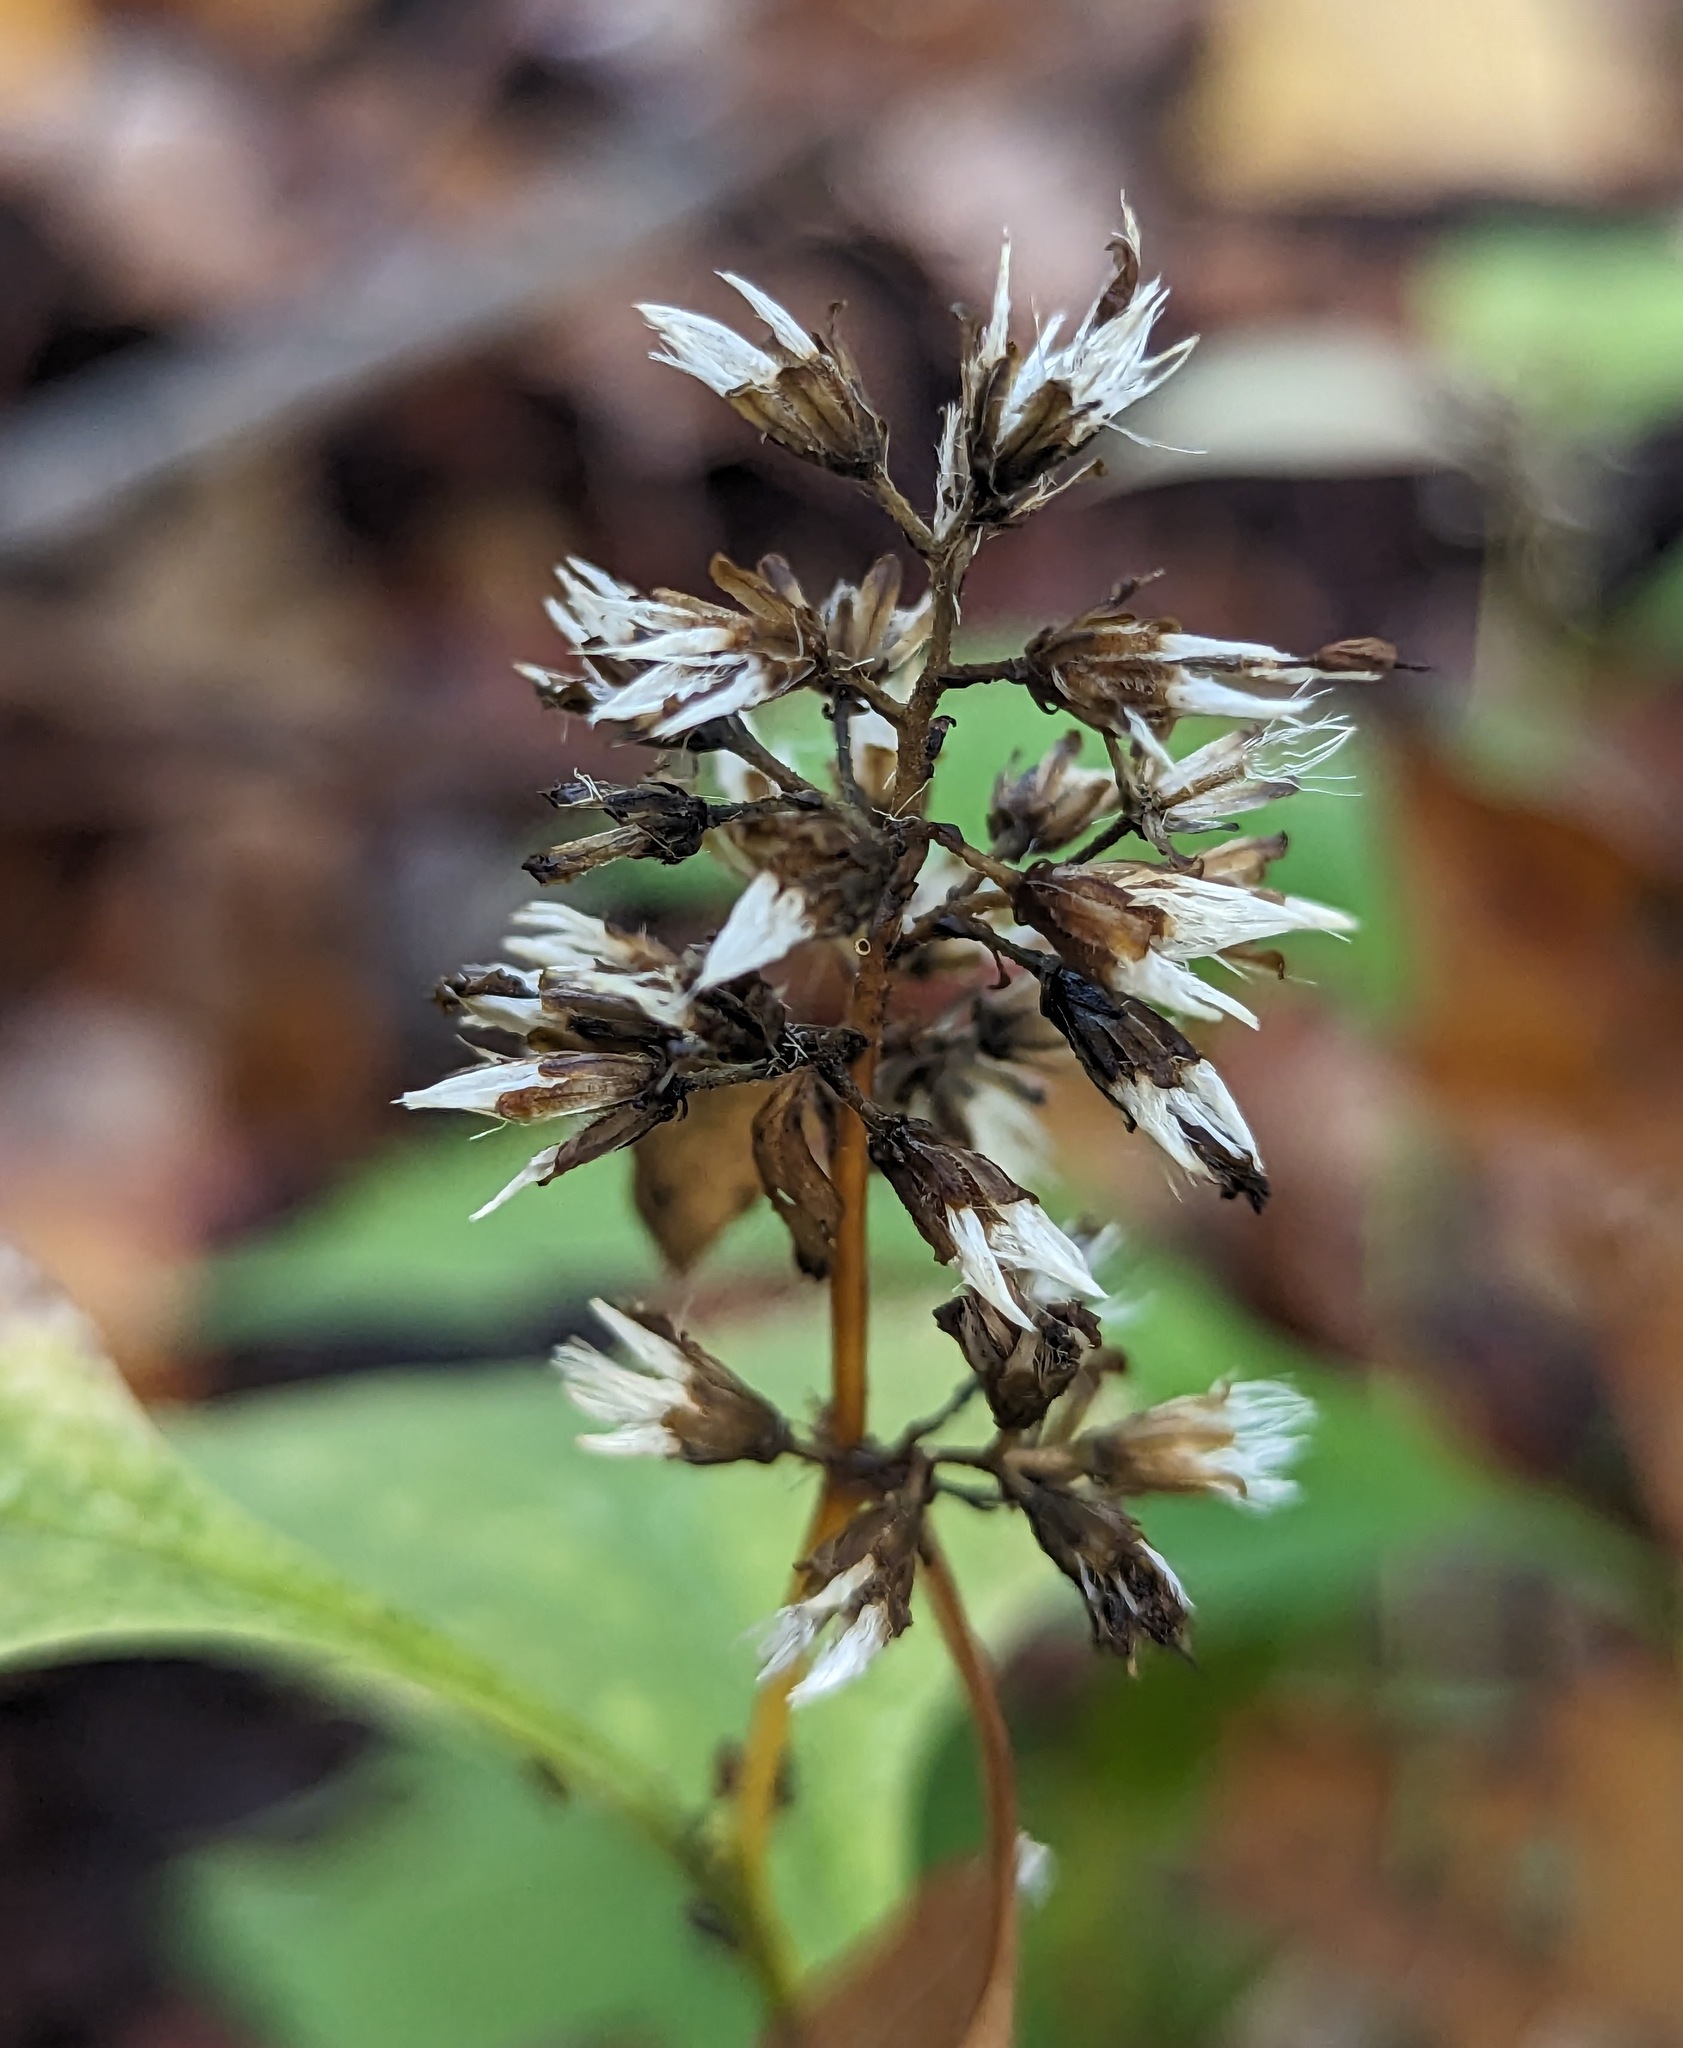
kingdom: Plantae
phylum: Tracheophyta
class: Magnoliopsida
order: Asterales
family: Asteraceae
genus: Solidago
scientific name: Solidago flexicaulis
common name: Zig-zag goldenrod
